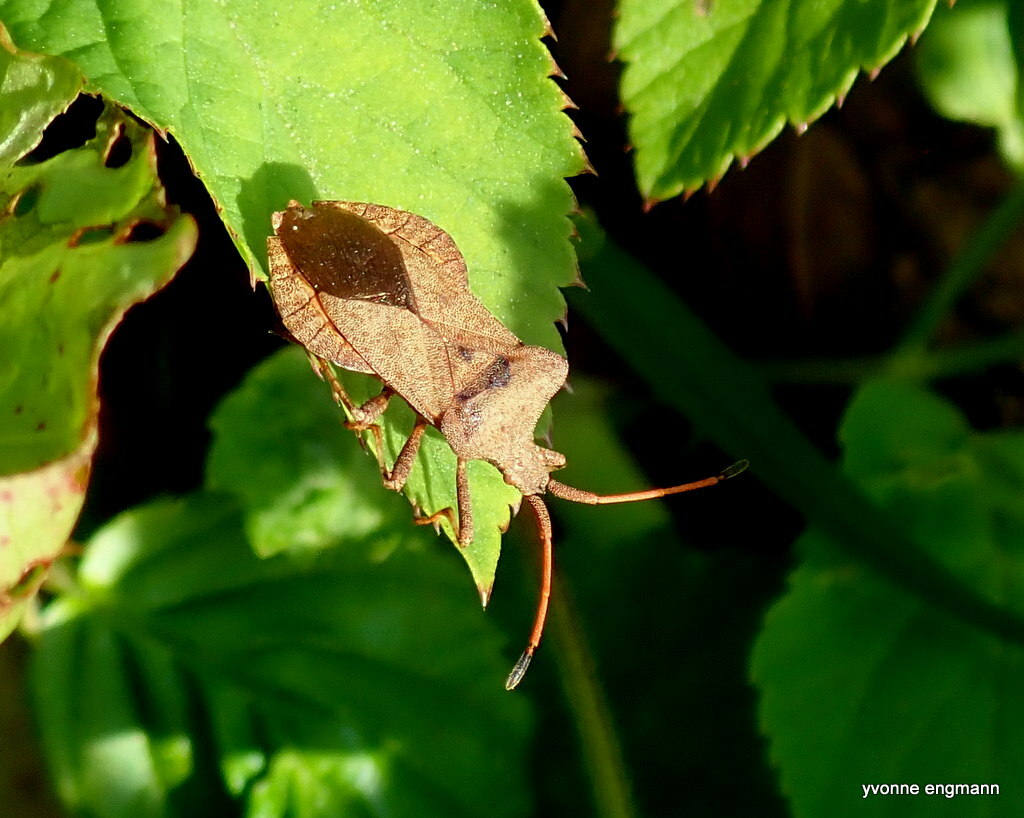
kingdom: Animalia
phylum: Arthropoda
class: Insecta
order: Hemiptera
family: Coreidae
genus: Coreus
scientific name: Coreus marginatus
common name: Dock bug
